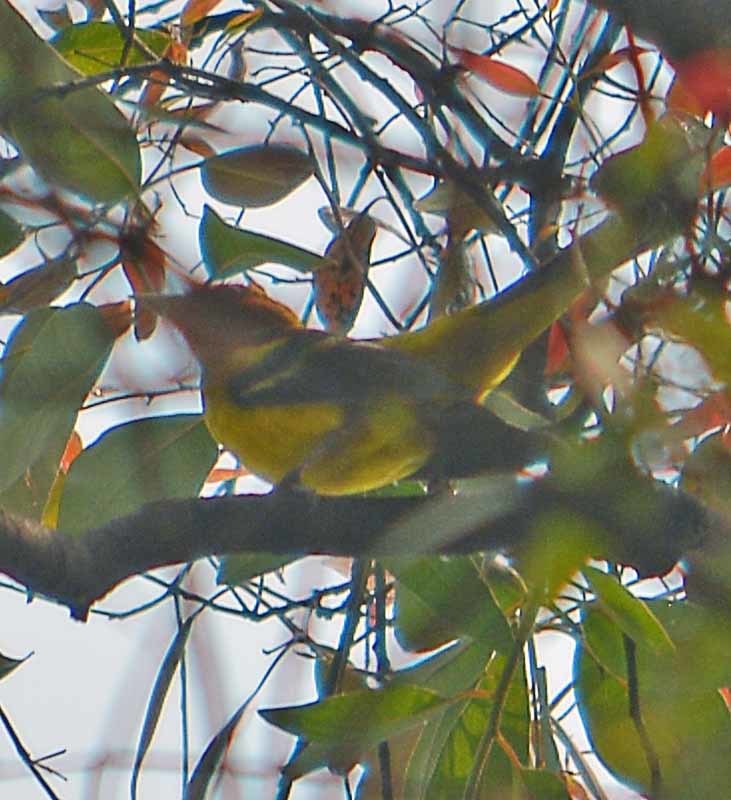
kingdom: Animalia
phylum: Chordata
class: Aves
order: Passeriformes
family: Cardinalidae
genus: Piranga
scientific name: Piranga ludoviciana
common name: Western tanager
